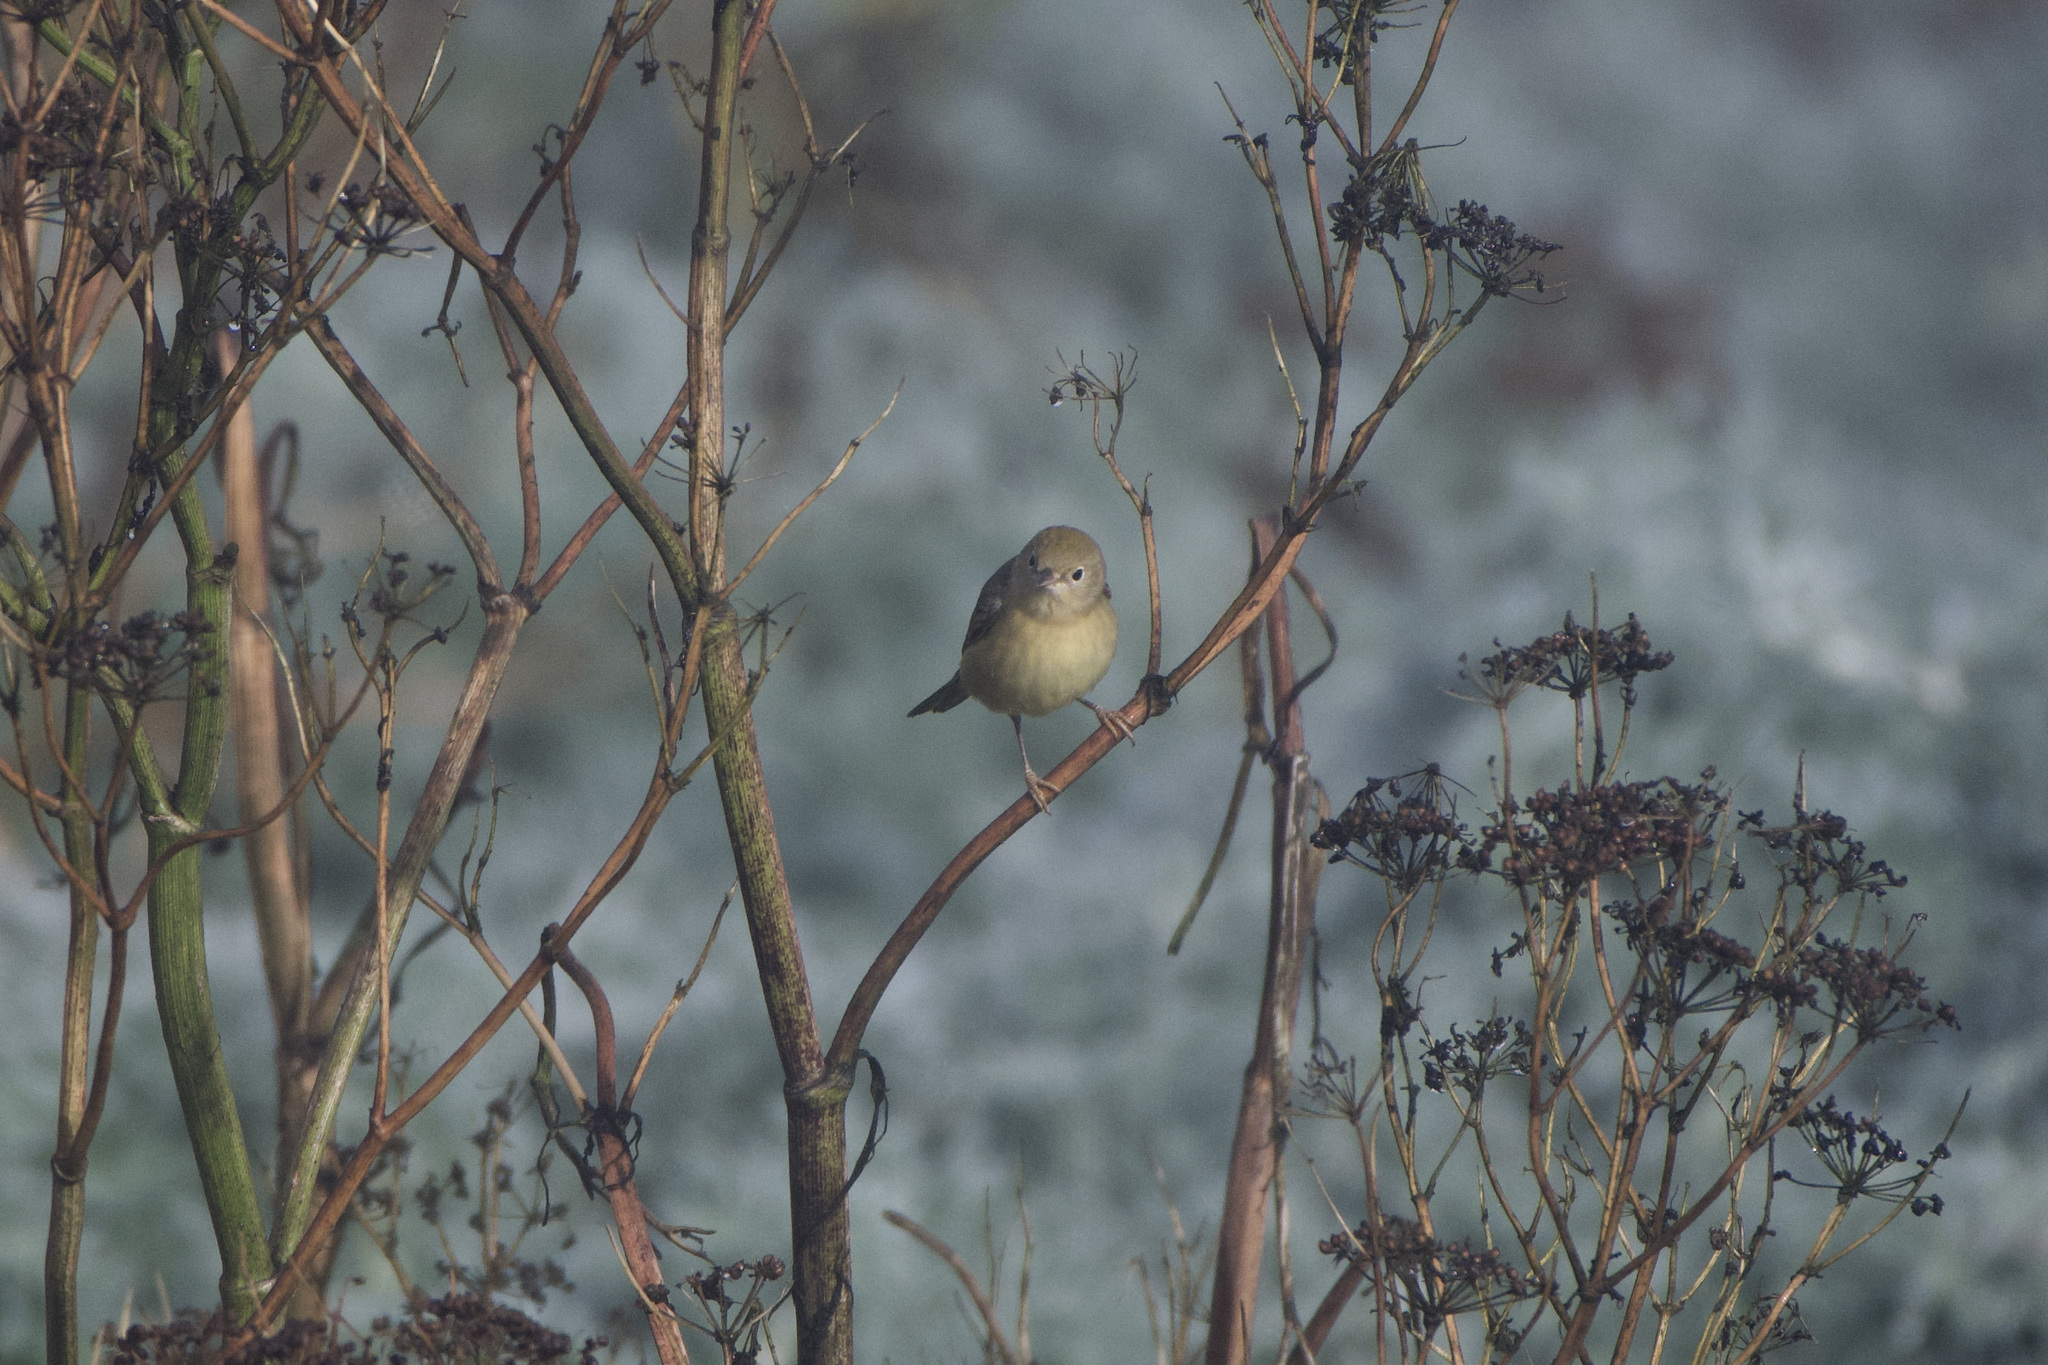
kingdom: Animalia
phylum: Chordata
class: Aves
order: Passeriformes
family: Parulidae
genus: Setophaga
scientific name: Setophaga petechia
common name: Yellow warbler
